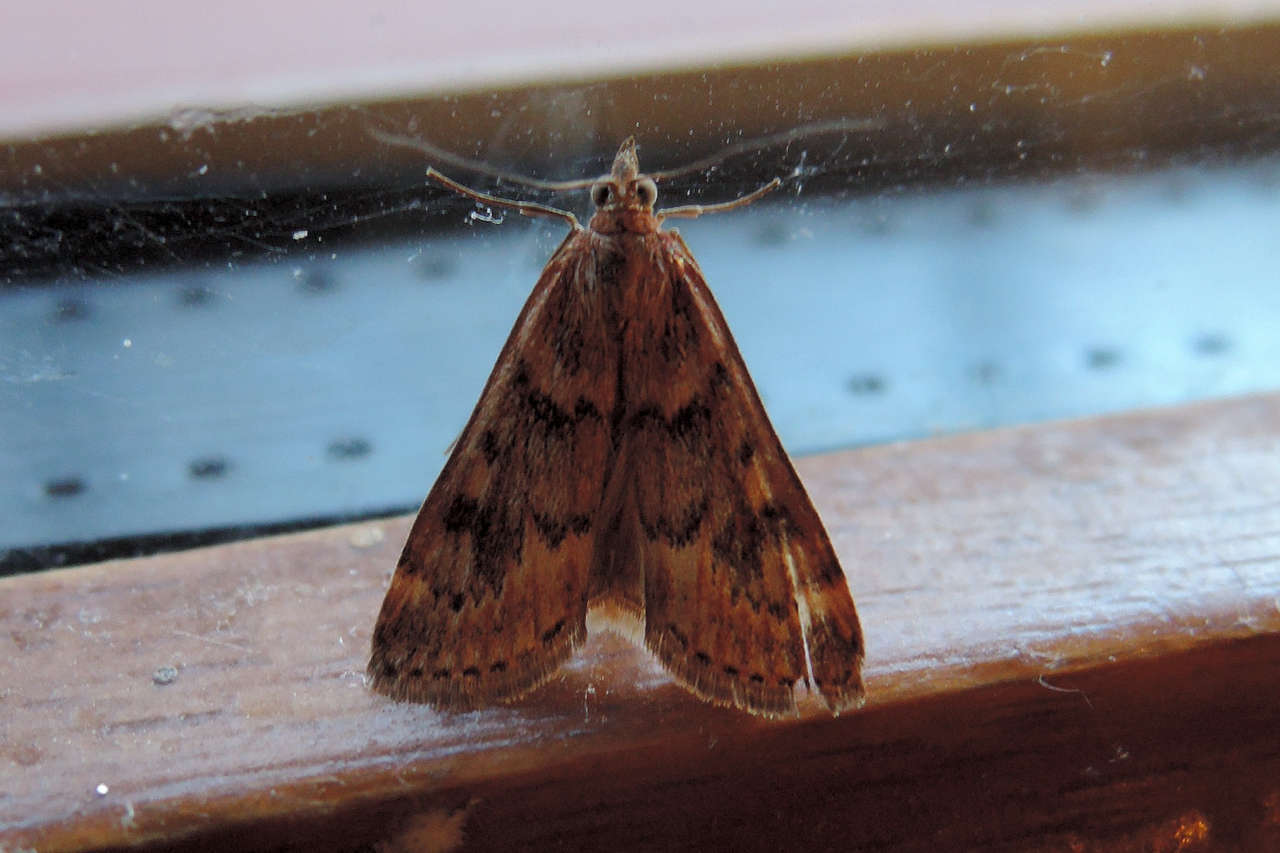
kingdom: Animalia
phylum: Arthropoda
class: Insecta
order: Lepidoptera
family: Crambidae
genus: Achyra
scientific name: Achyra affinitalis
